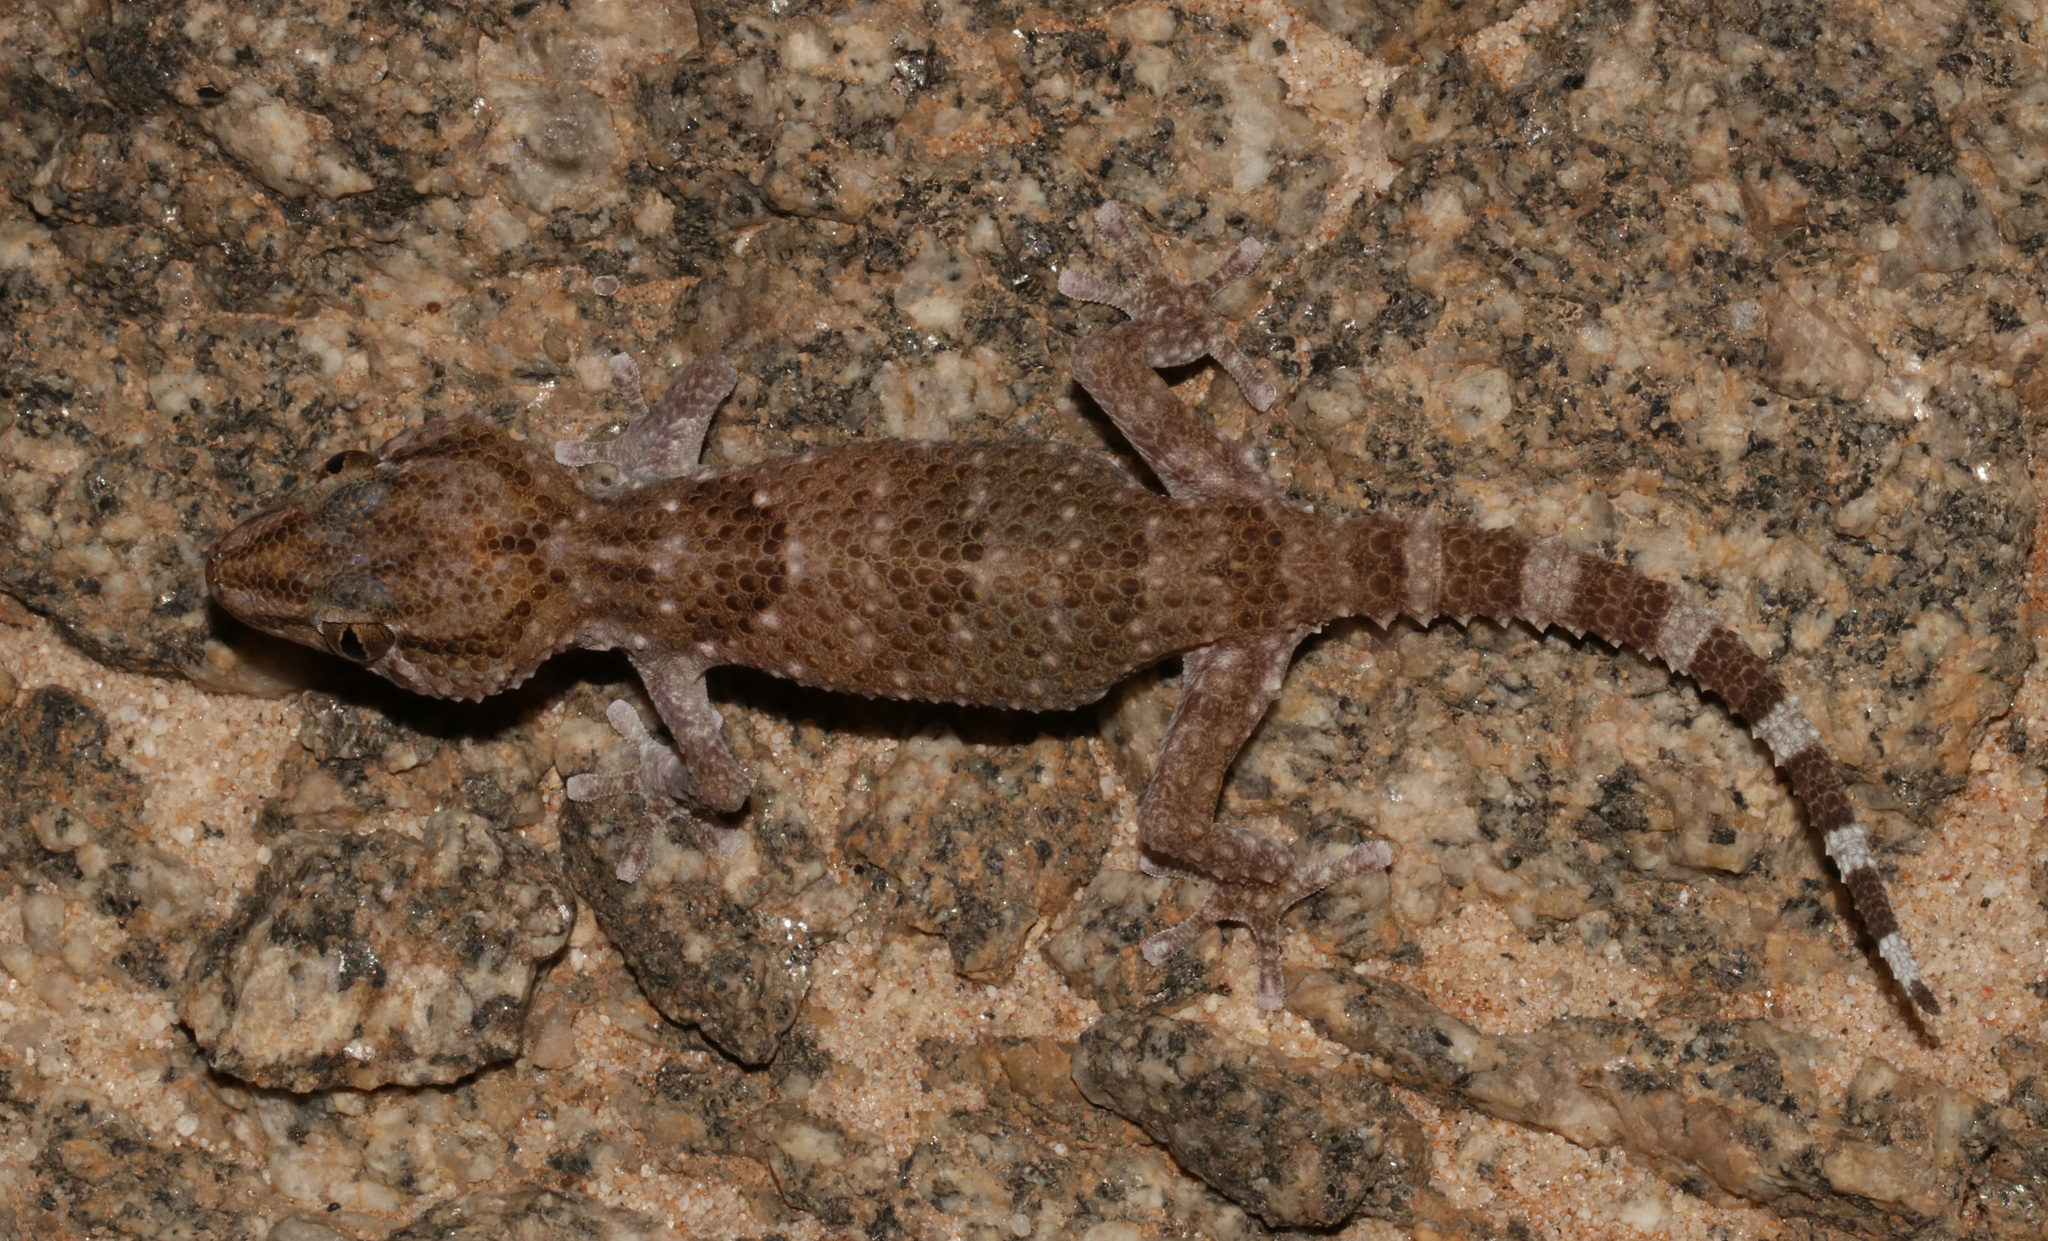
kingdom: Animalia
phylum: Chordata
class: Squamata
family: Gekkonidae
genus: Chondrodactylus
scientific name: Chondrodactylus laevigatus
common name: Fischer's thick-toed gecko
